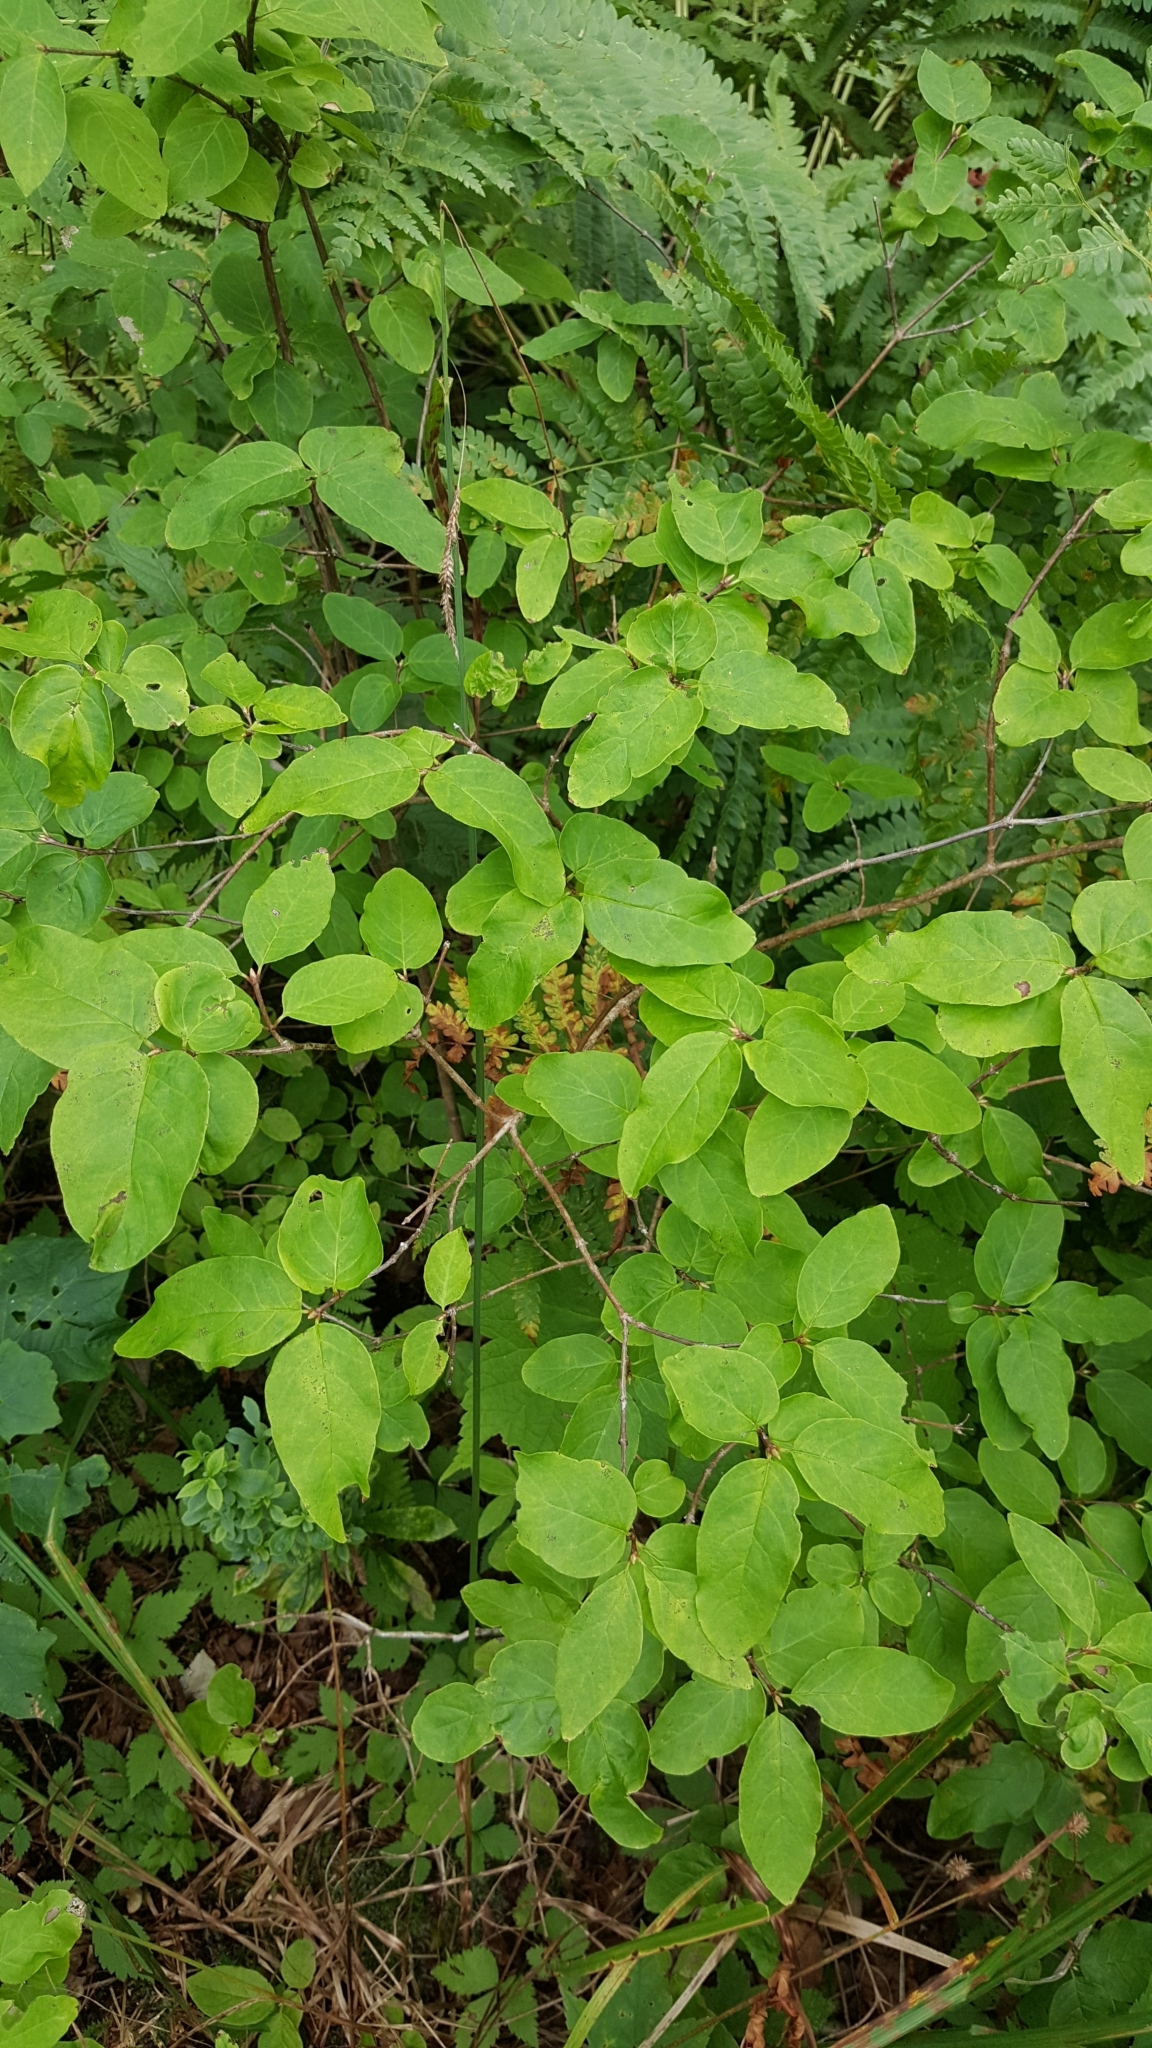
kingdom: Plantae
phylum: Tracheophyta
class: Magnoliopsida
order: Dipsacales
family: Caprifoliaceae
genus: Lonicera
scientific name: Lonicera canadensis
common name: American fly-honeysuckle
